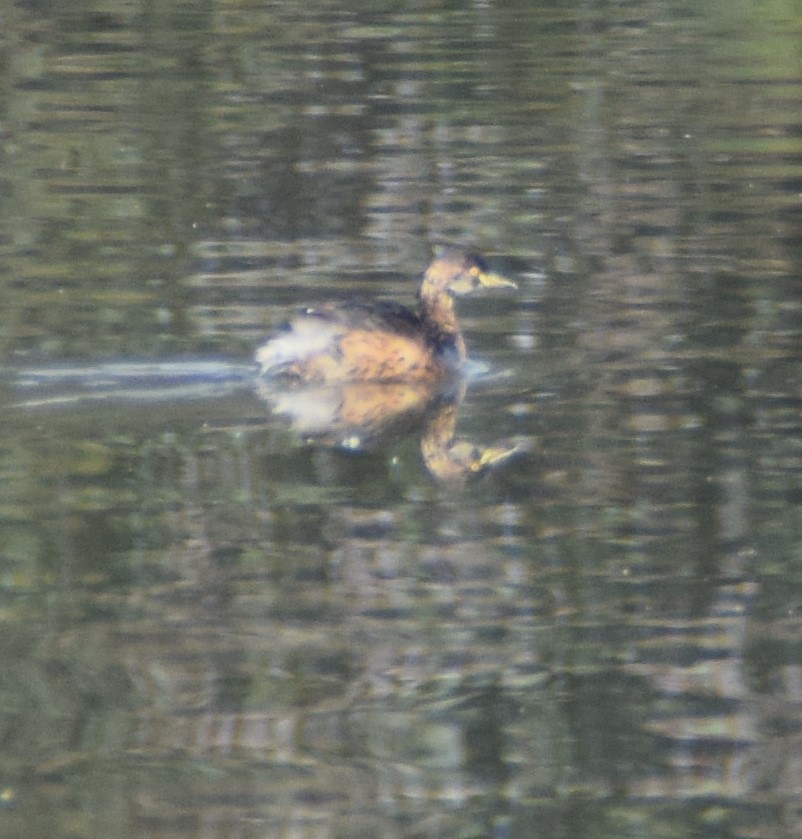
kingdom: Animalia
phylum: Chordata
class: Aves
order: Podicipediformes
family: Podicipedidae
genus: Tachybaptus
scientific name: Tachybaptus novaehollandiae
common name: Australasian grebe
